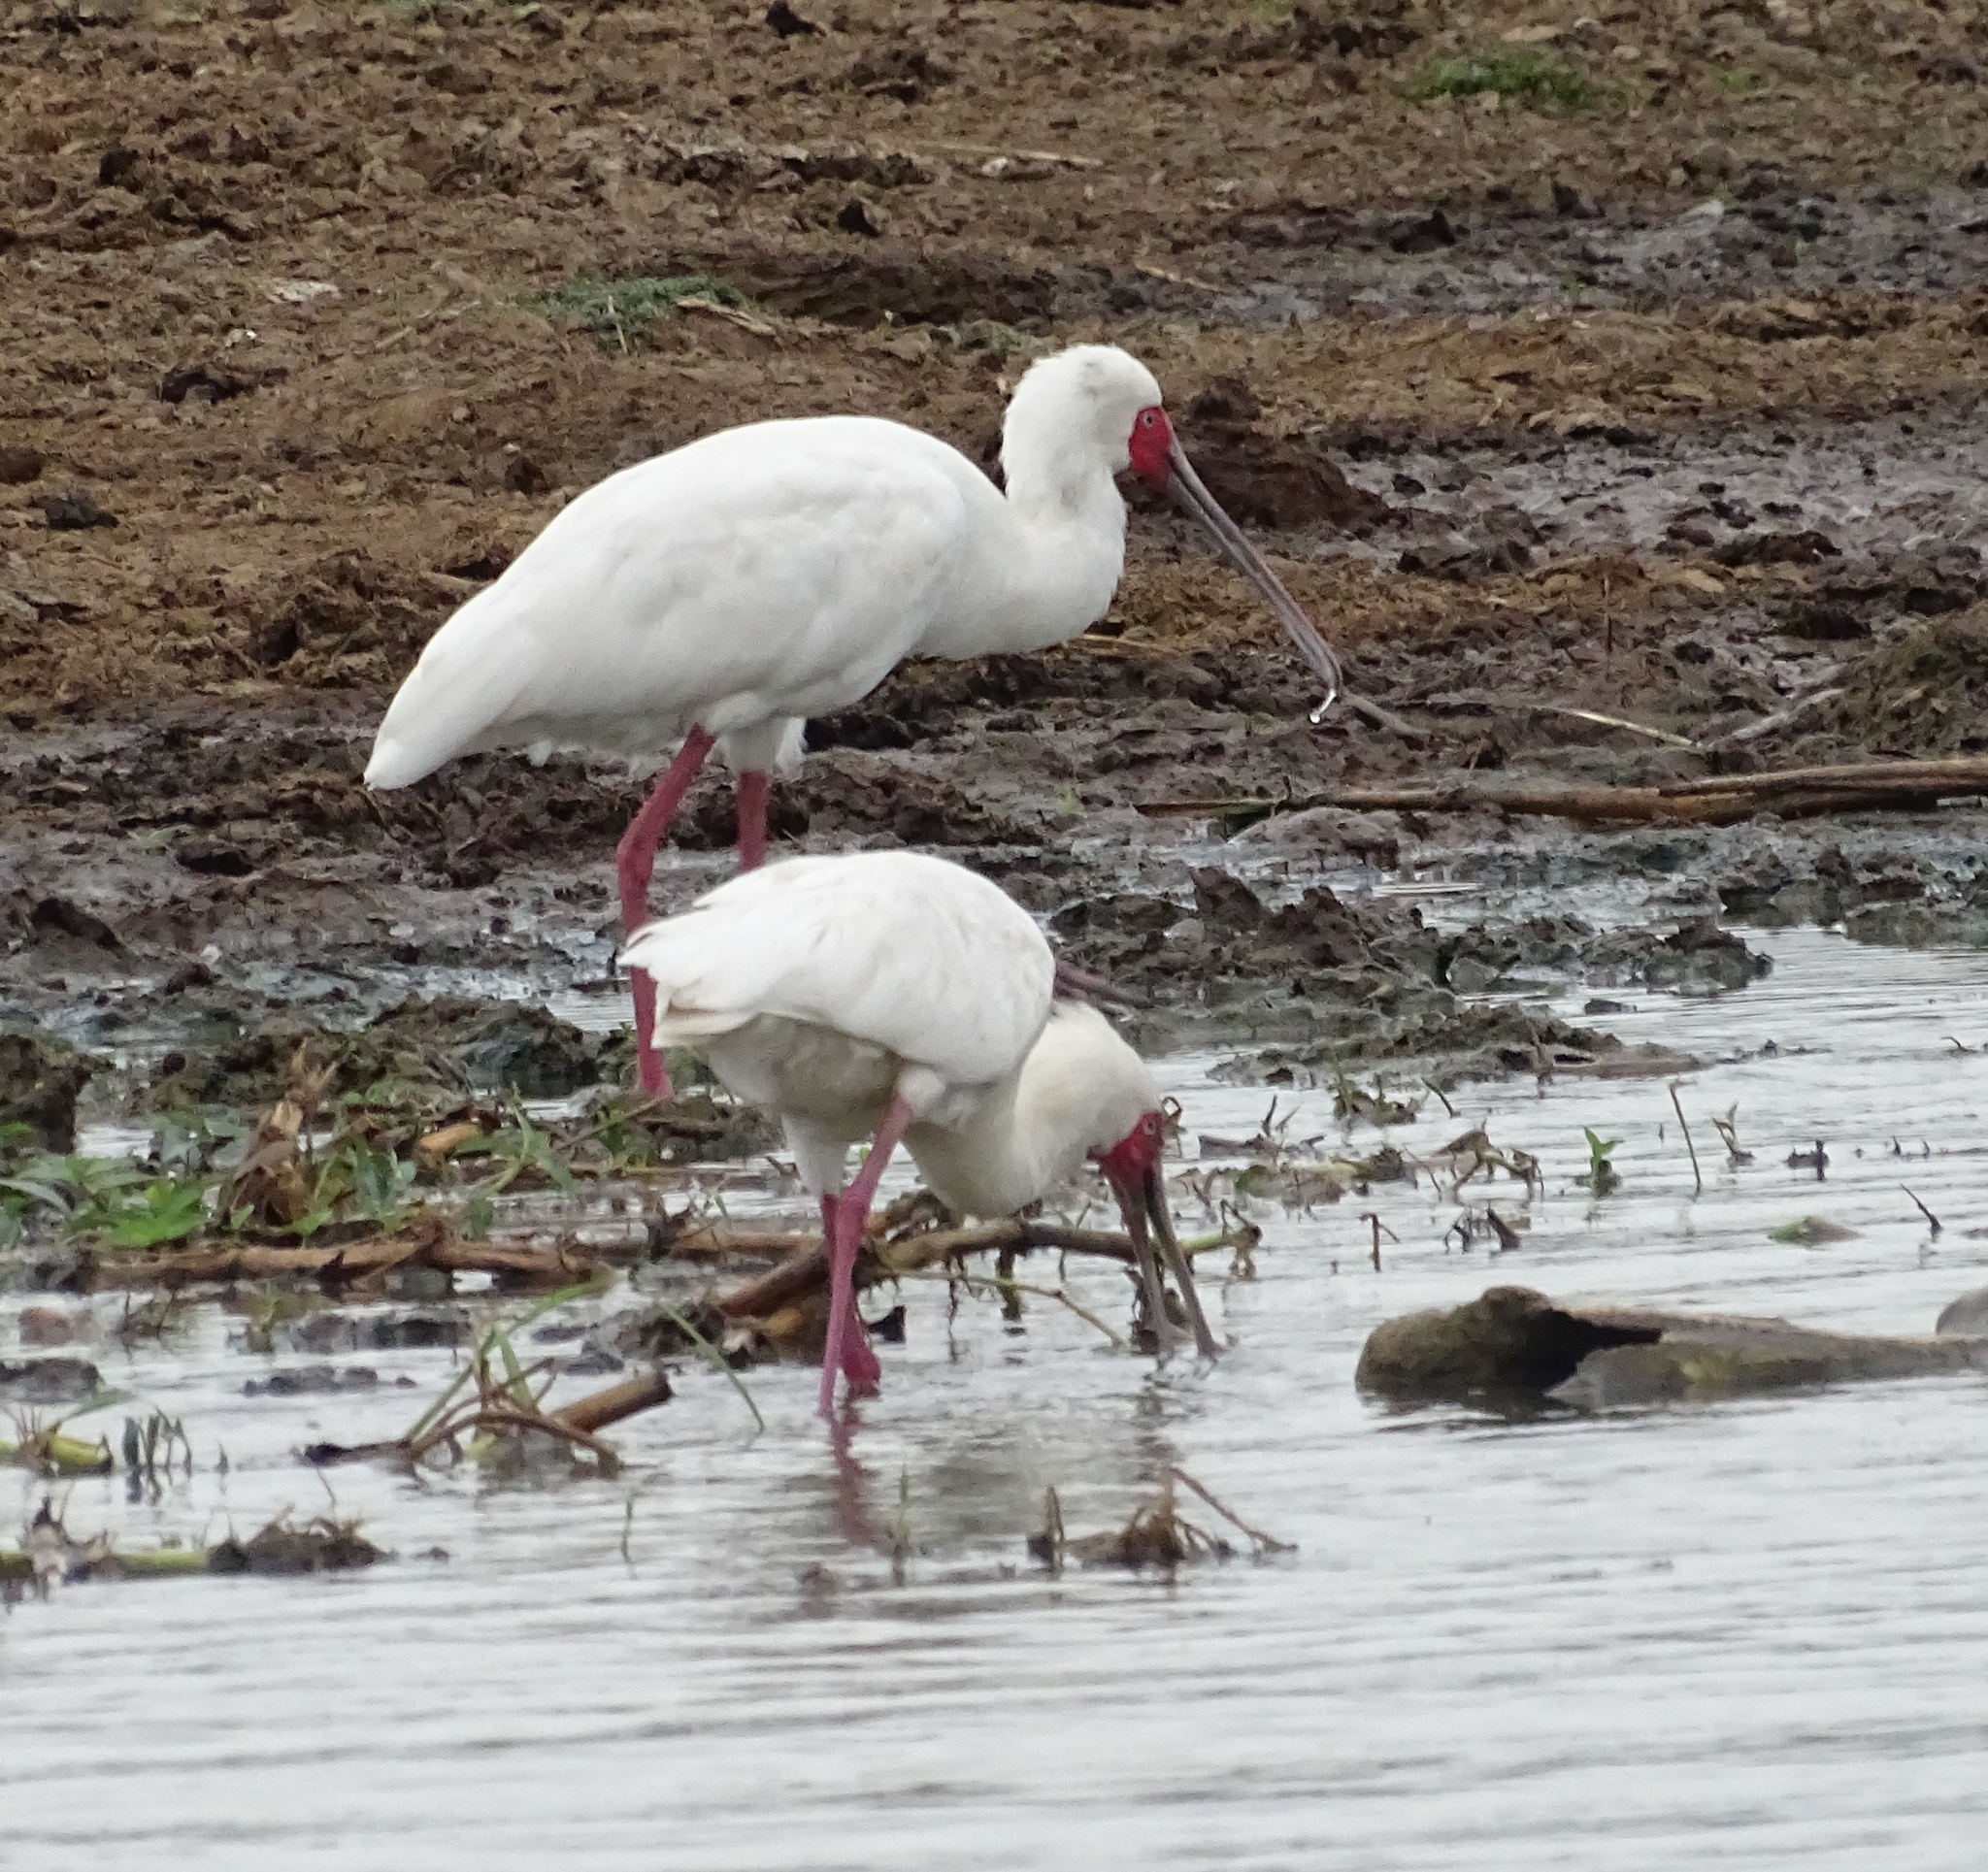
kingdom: Animalia
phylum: Chordata
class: Aves
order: Pelecaniformes
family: Threskiornithidae
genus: Platalea
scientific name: Platalea alba
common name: African spoonbill
